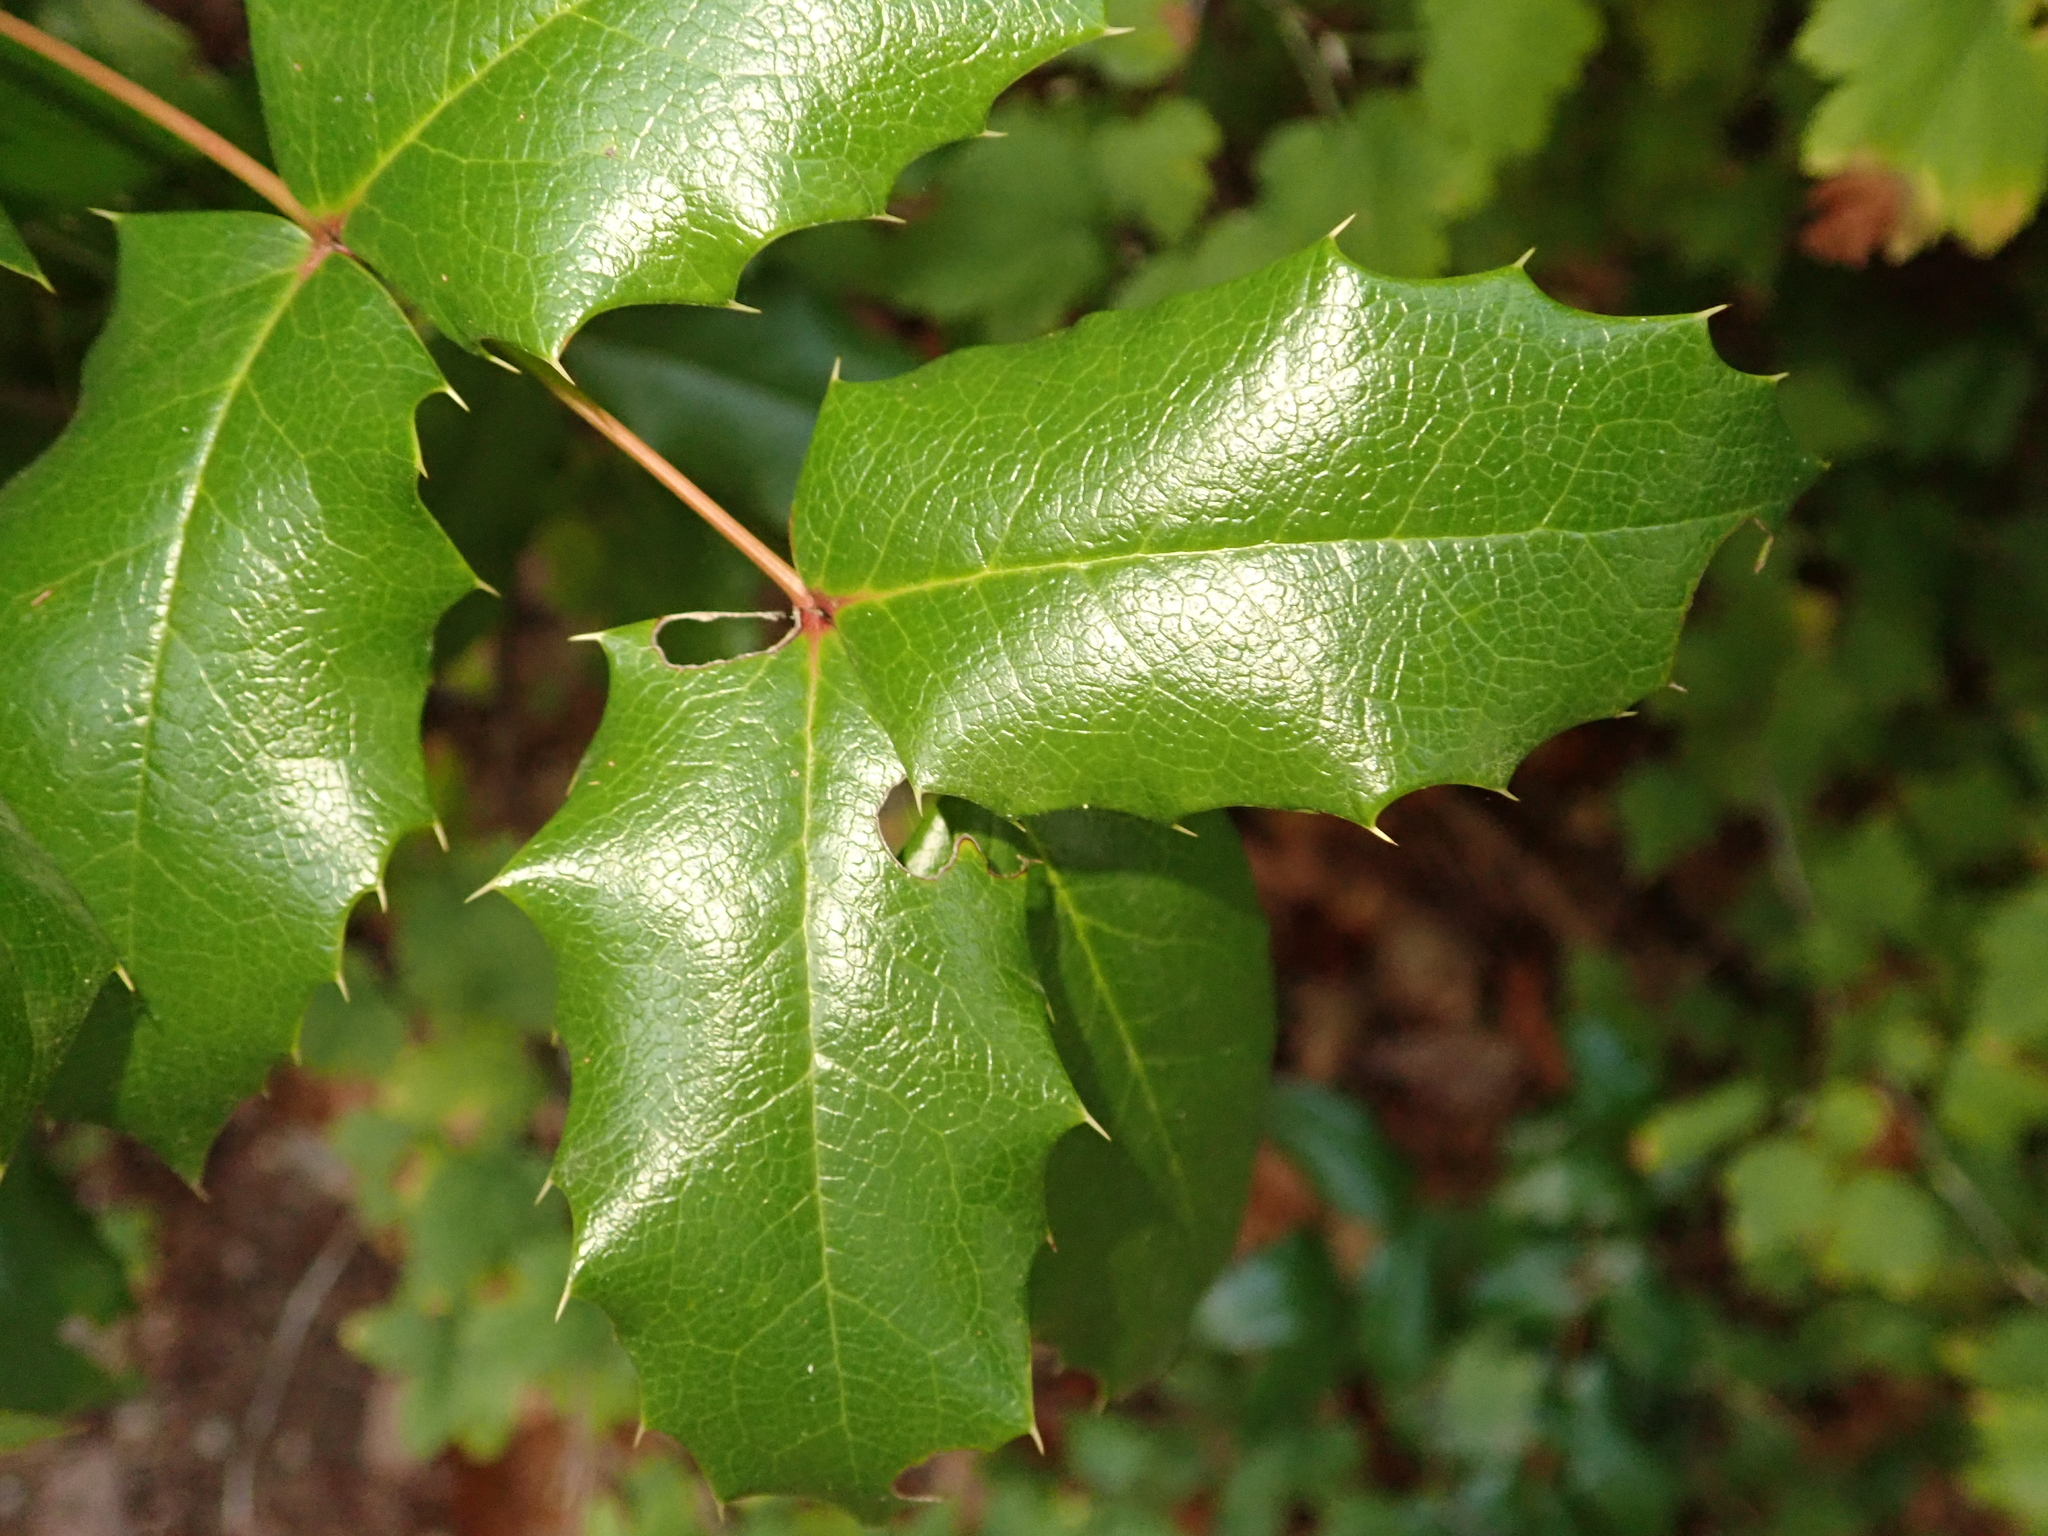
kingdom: Plantae
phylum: Tracheophyta
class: Magnoliopsida
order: Ranunculales
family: Berberidaceae
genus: Mahonia
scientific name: Mahonia aquifolium
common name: Oregon-grape
